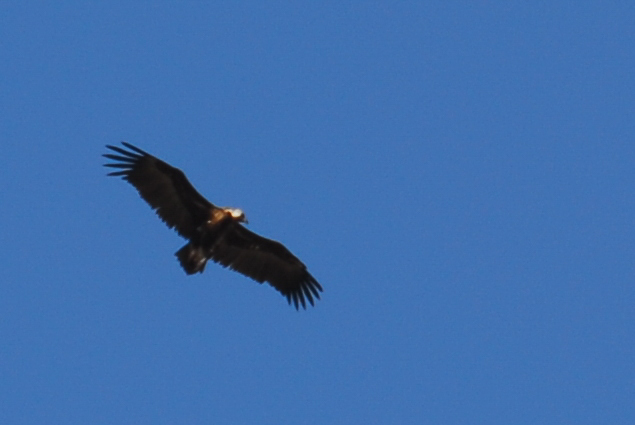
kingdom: Animalia
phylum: Chordata
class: Aves
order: Accipitriformes
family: Accipitridae
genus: Aegypius
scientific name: Aegypius monachus
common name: Cinereous vulture
